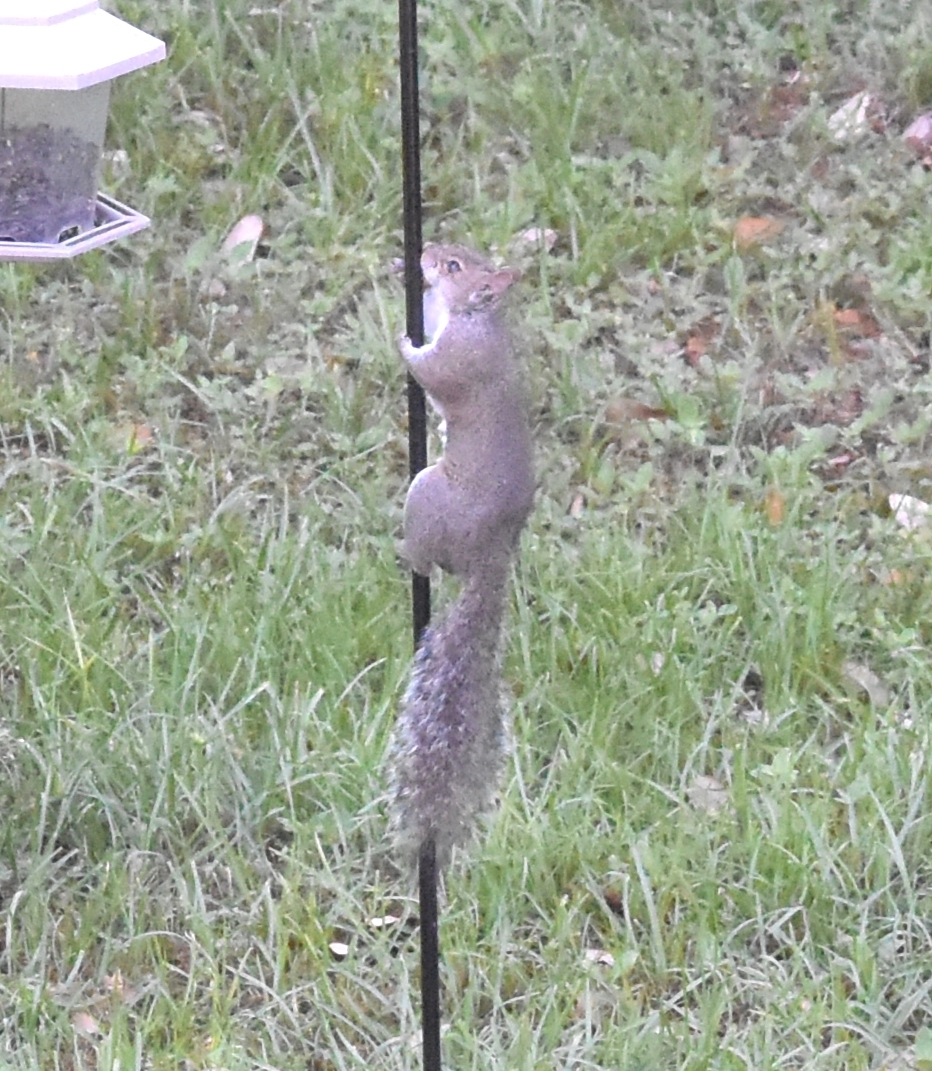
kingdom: Animalia
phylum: Chordata
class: Mammalia
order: Rodentia
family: Sciuridae
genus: Sciurus
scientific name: Sciurus carolinensis
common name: Eastern gray squirrel
